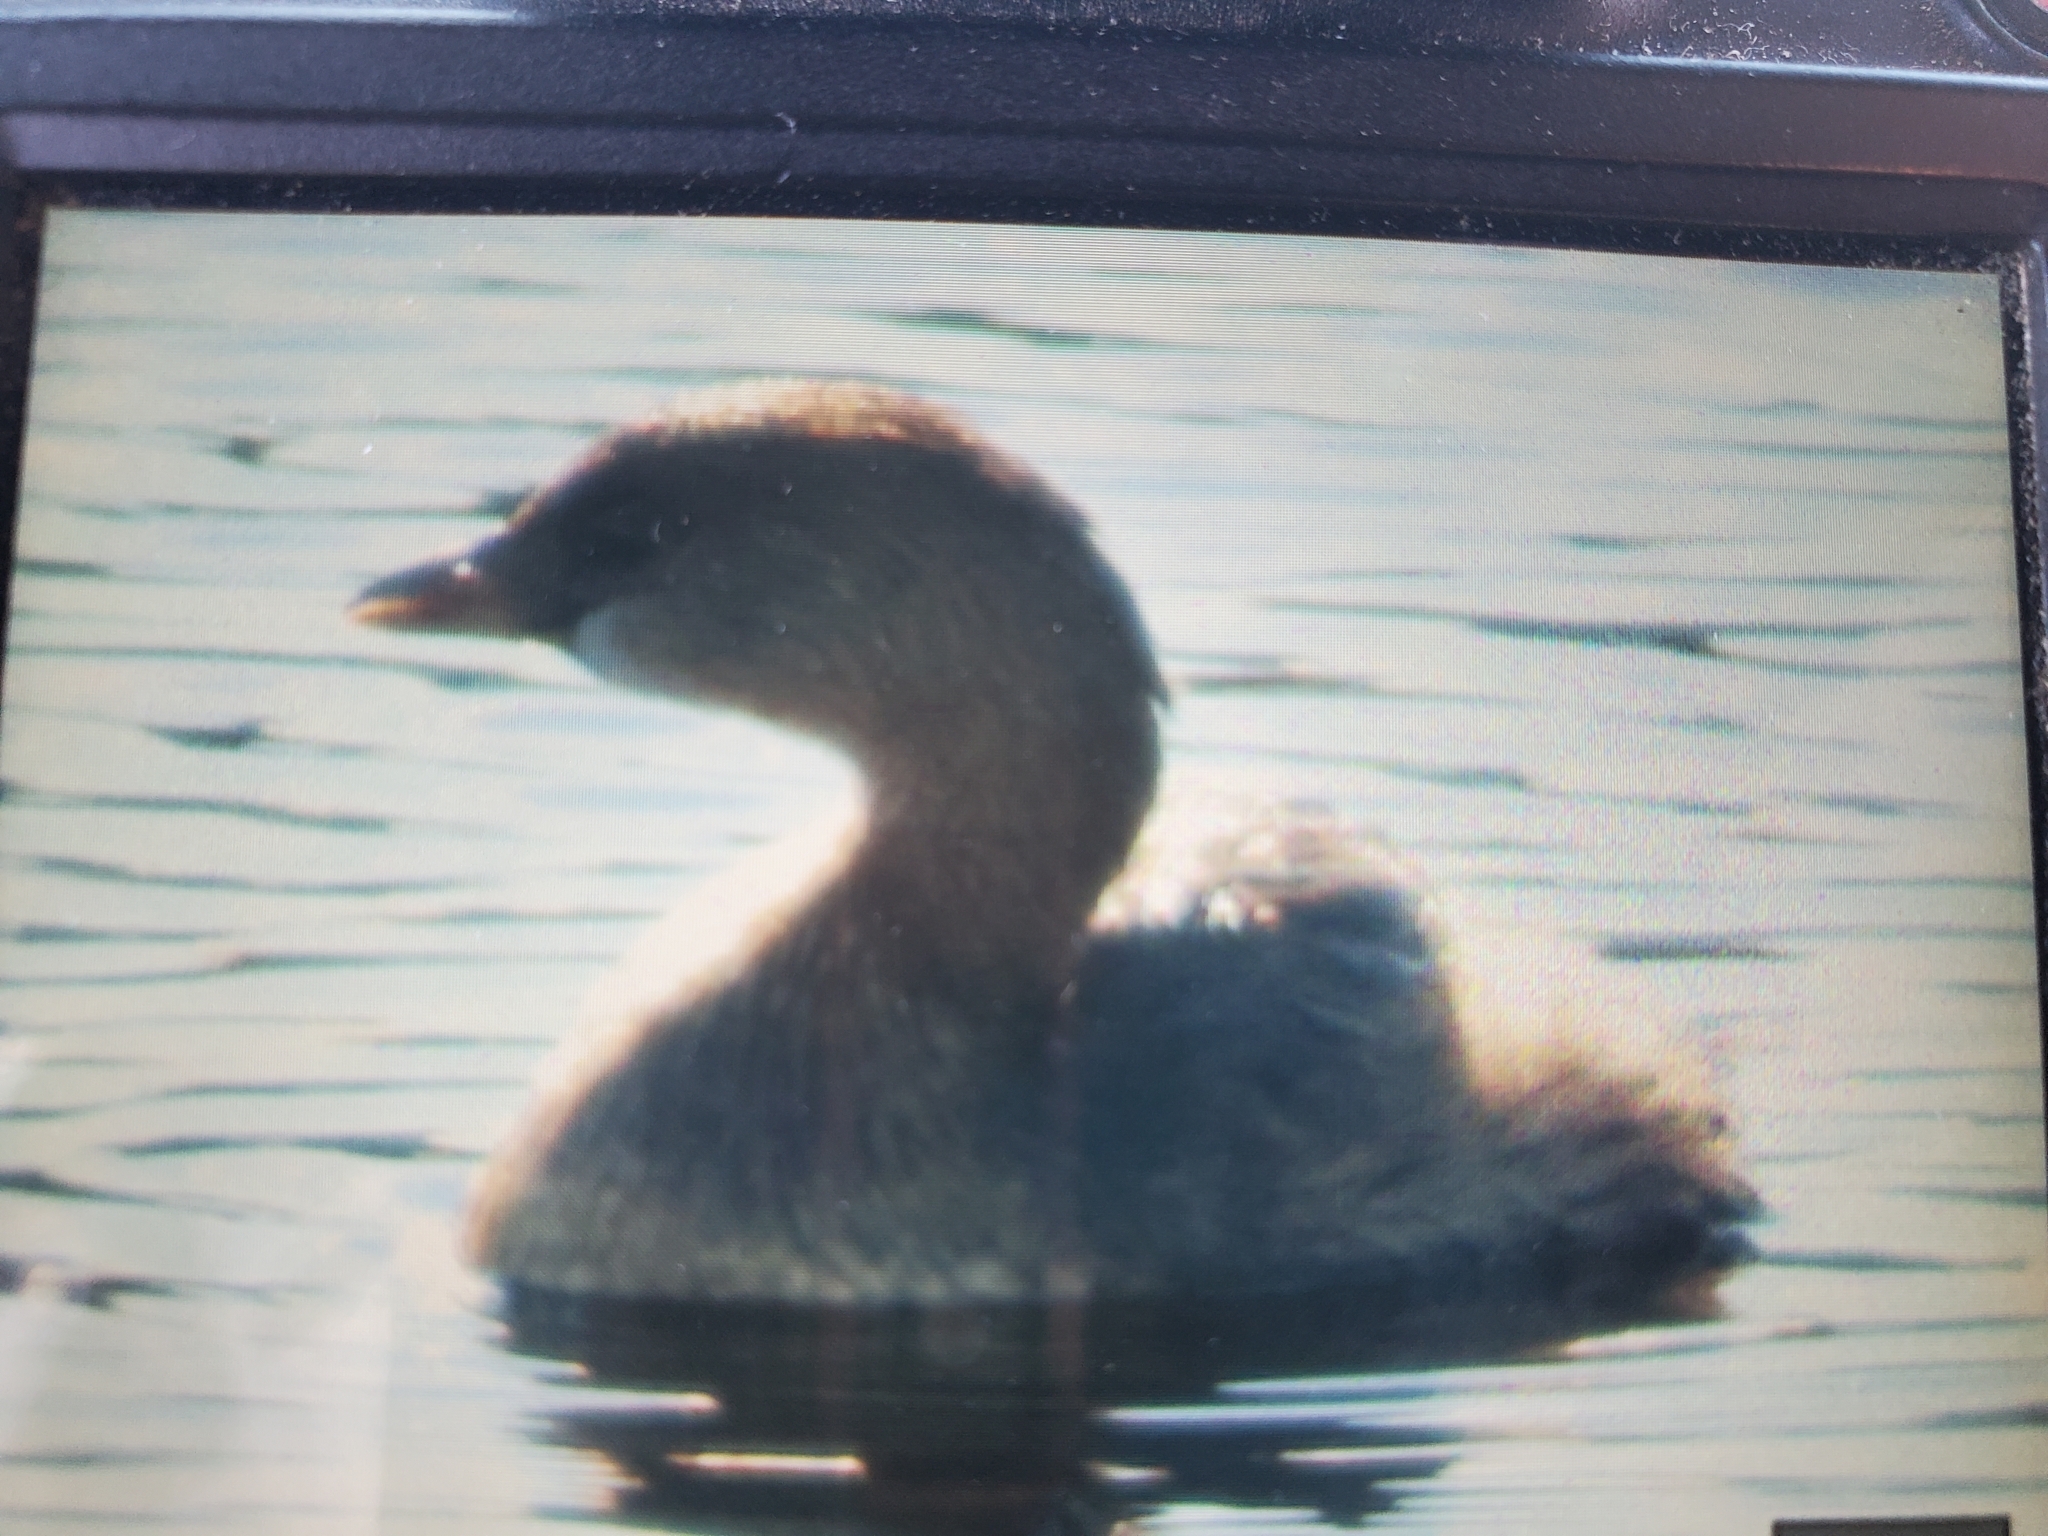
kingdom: Animalia
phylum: Chordata
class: Aves
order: Podicipediformes
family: Podicipedidae
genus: Podilymbus
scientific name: Podilymbus podiceps
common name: Pied-billed grebe
